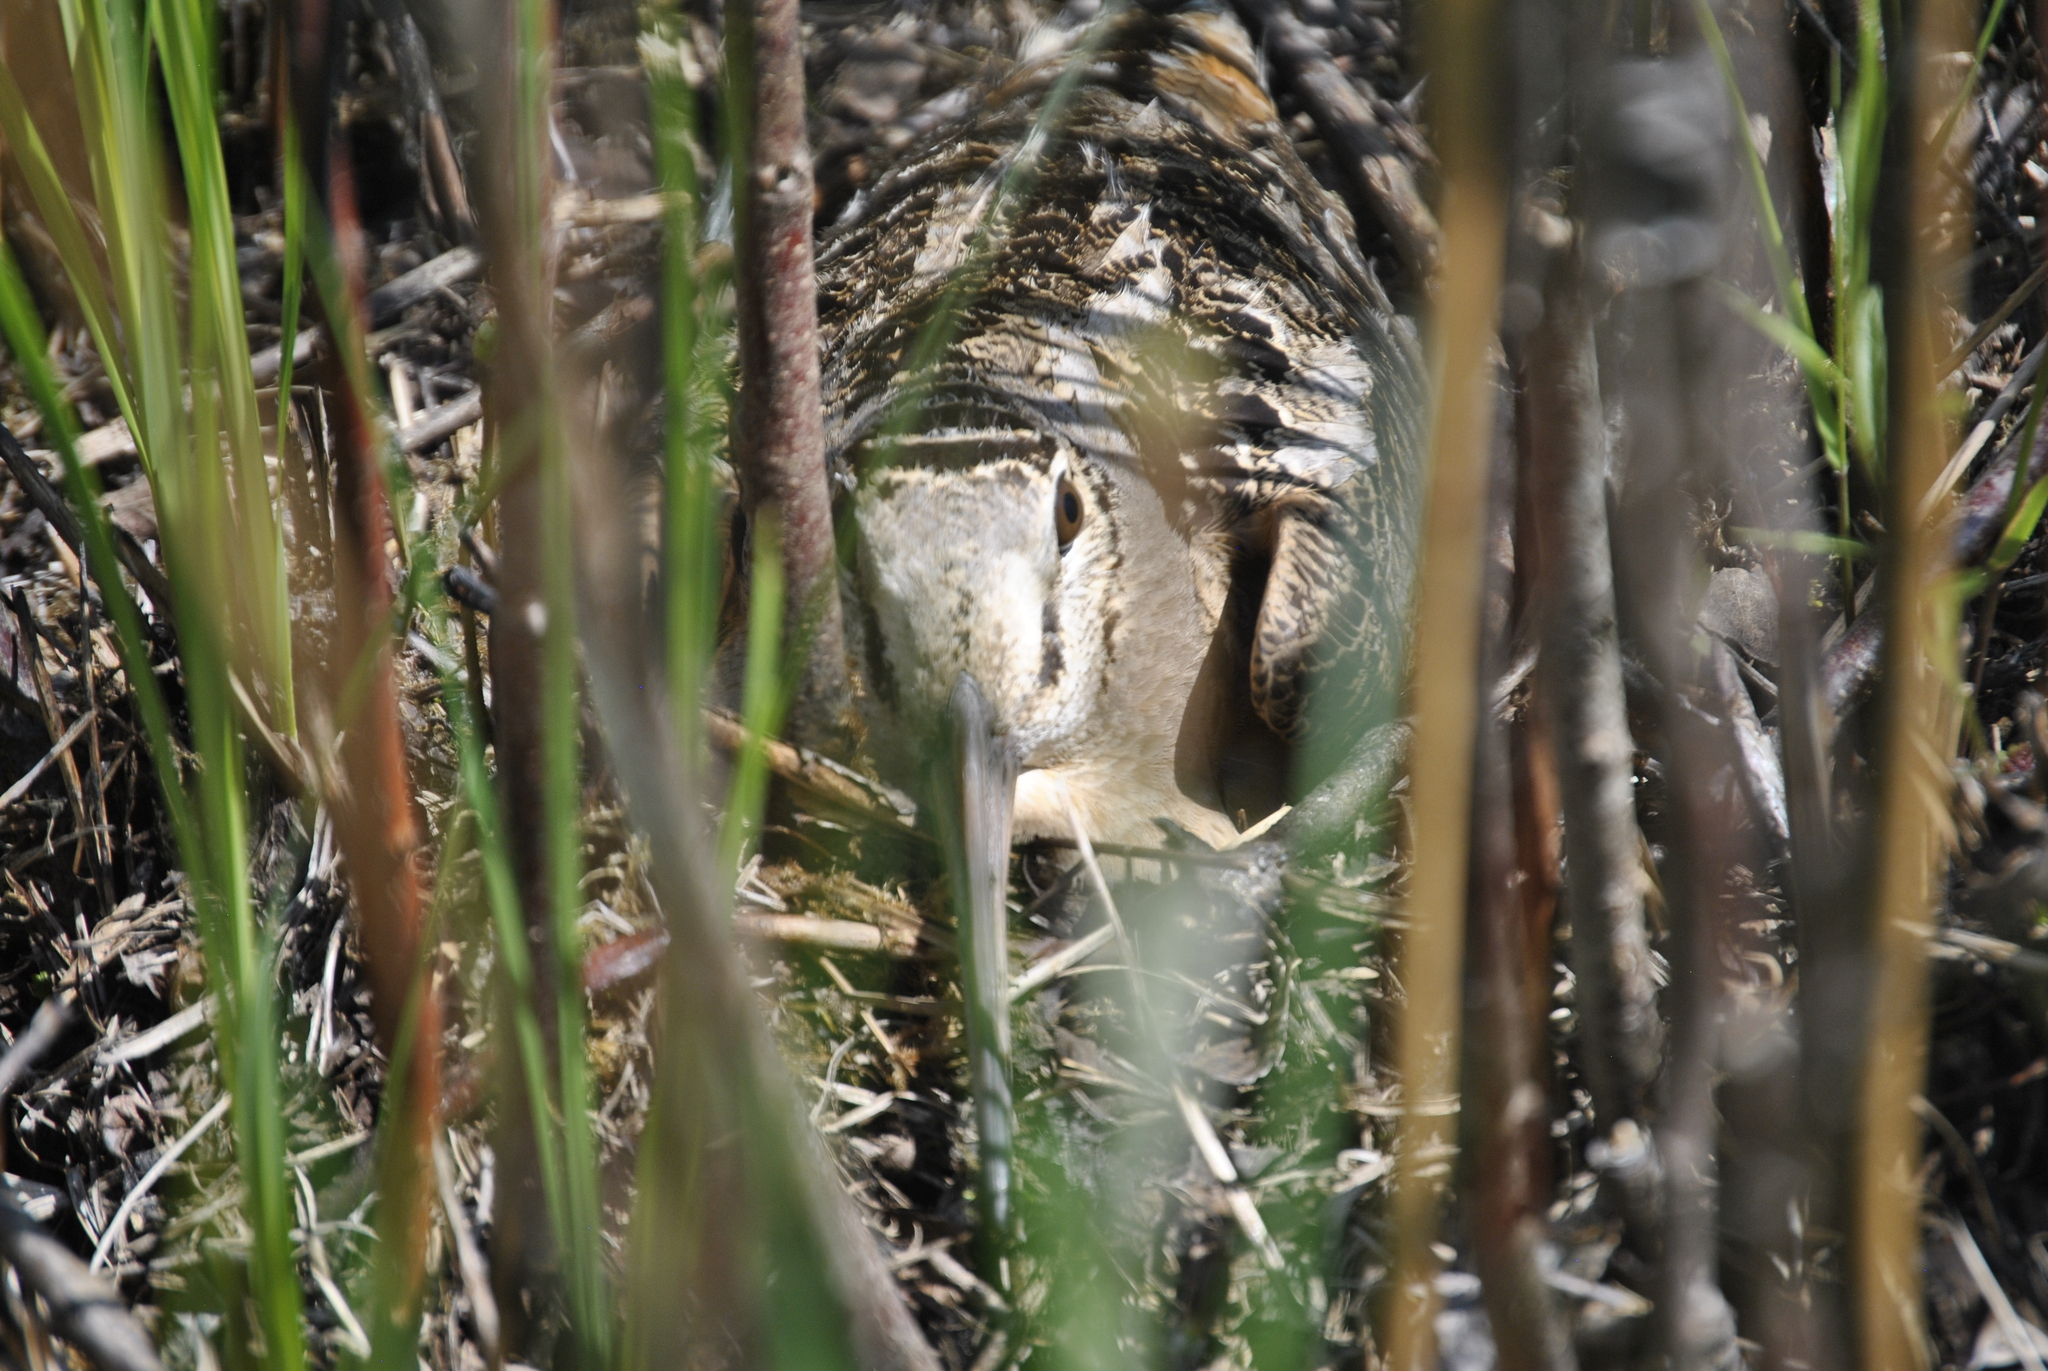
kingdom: Animalia
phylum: Chordata
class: Aves
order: Charadriiformes
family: Scolopacidae
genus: Scolopax
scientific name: Scolopax minor
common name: American woodcock
